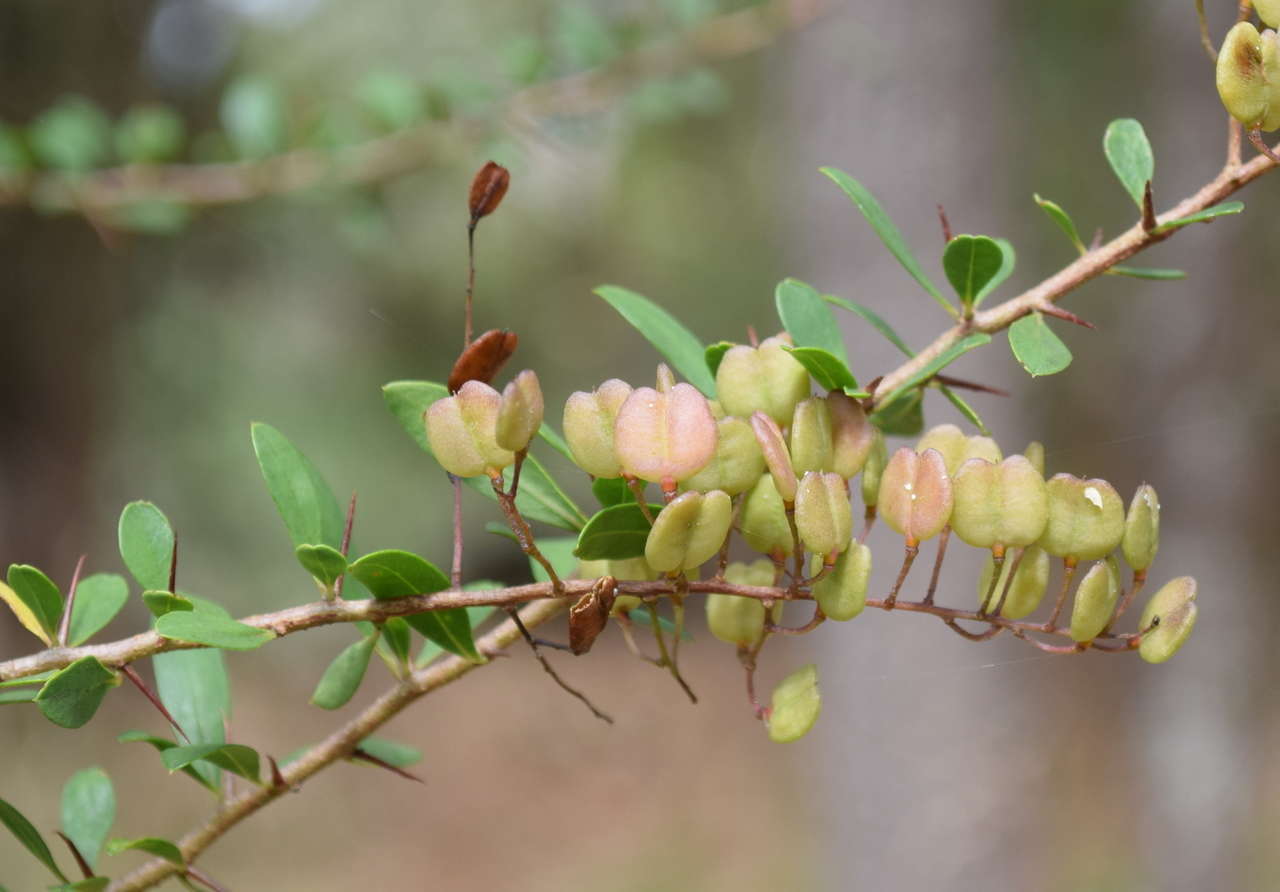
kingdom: Plantae
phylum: Tracheophyta
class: Magnoliopsida
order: Apiales
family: Pittosporaceae
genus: Bursaria
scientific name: Bursaria spinosa
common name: Australian blackthorn
